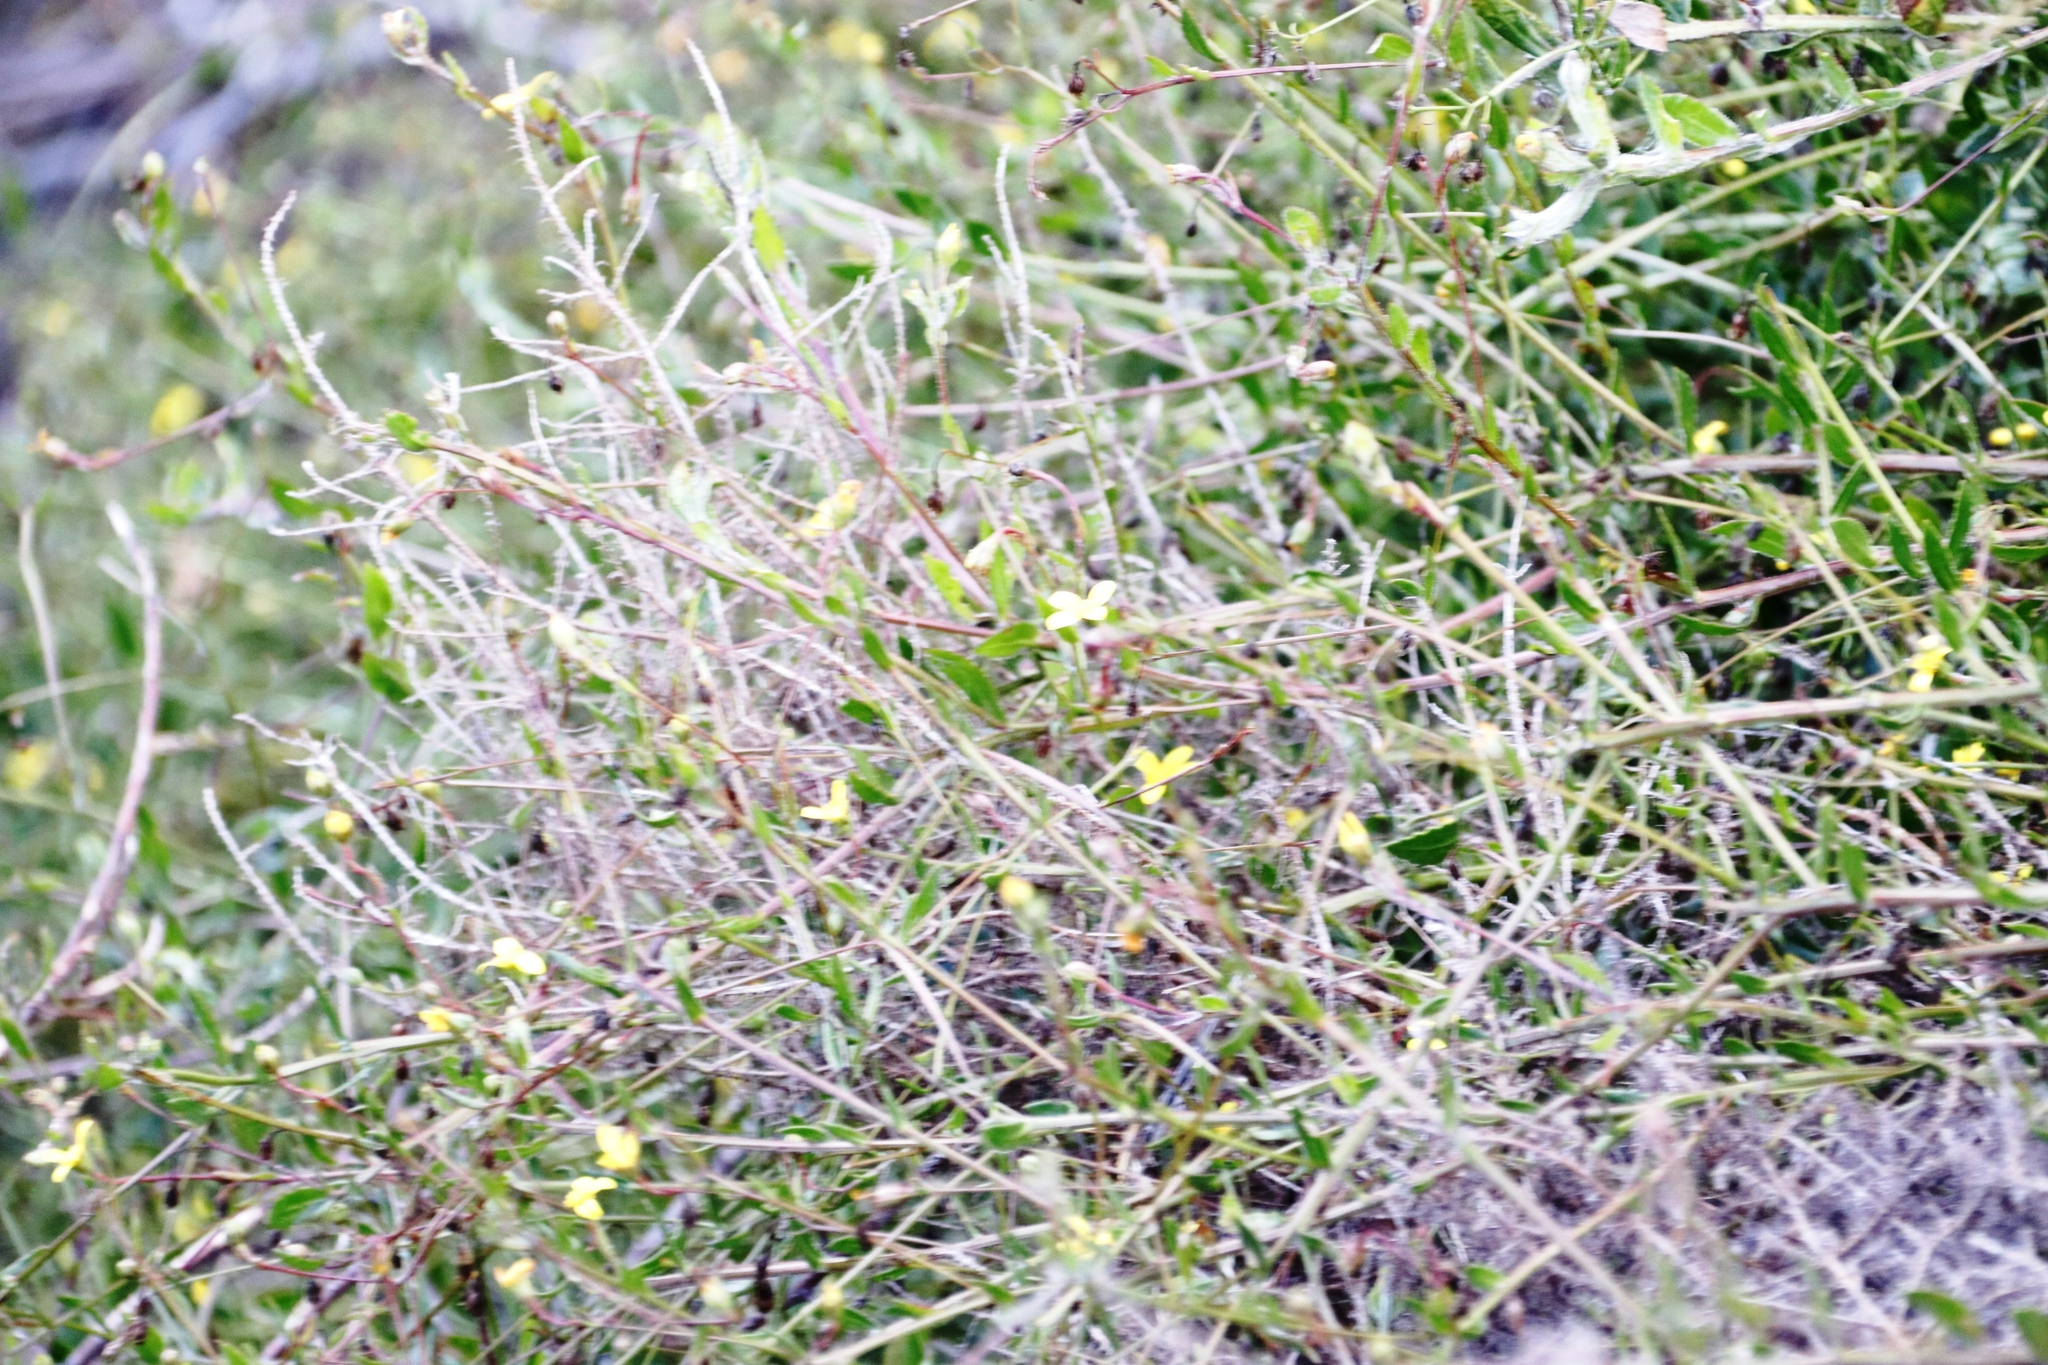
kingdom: Plantae
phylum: Tracheophyta
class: Magnoliopsida
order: Asterales
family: Asteraceae
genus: Osteospermum
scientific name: Osteospermum ciliatum
